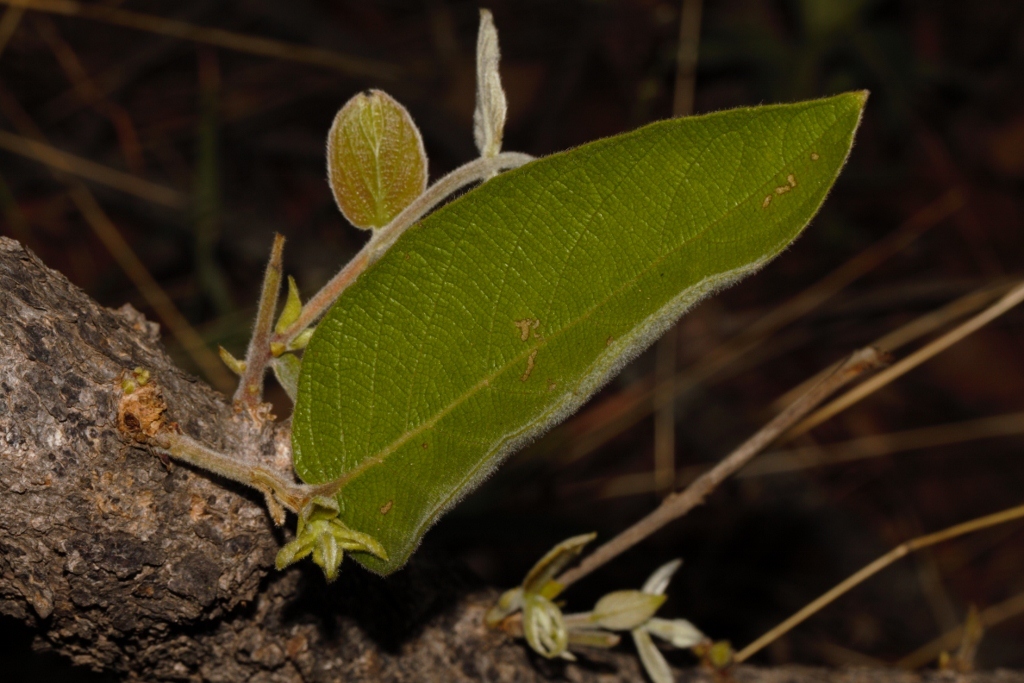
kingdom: Plantae
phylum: Tracheophyta
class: Magnoliopsida
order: Myrtales
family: Combretaceae
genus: Combretum
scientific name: Combretum molle
